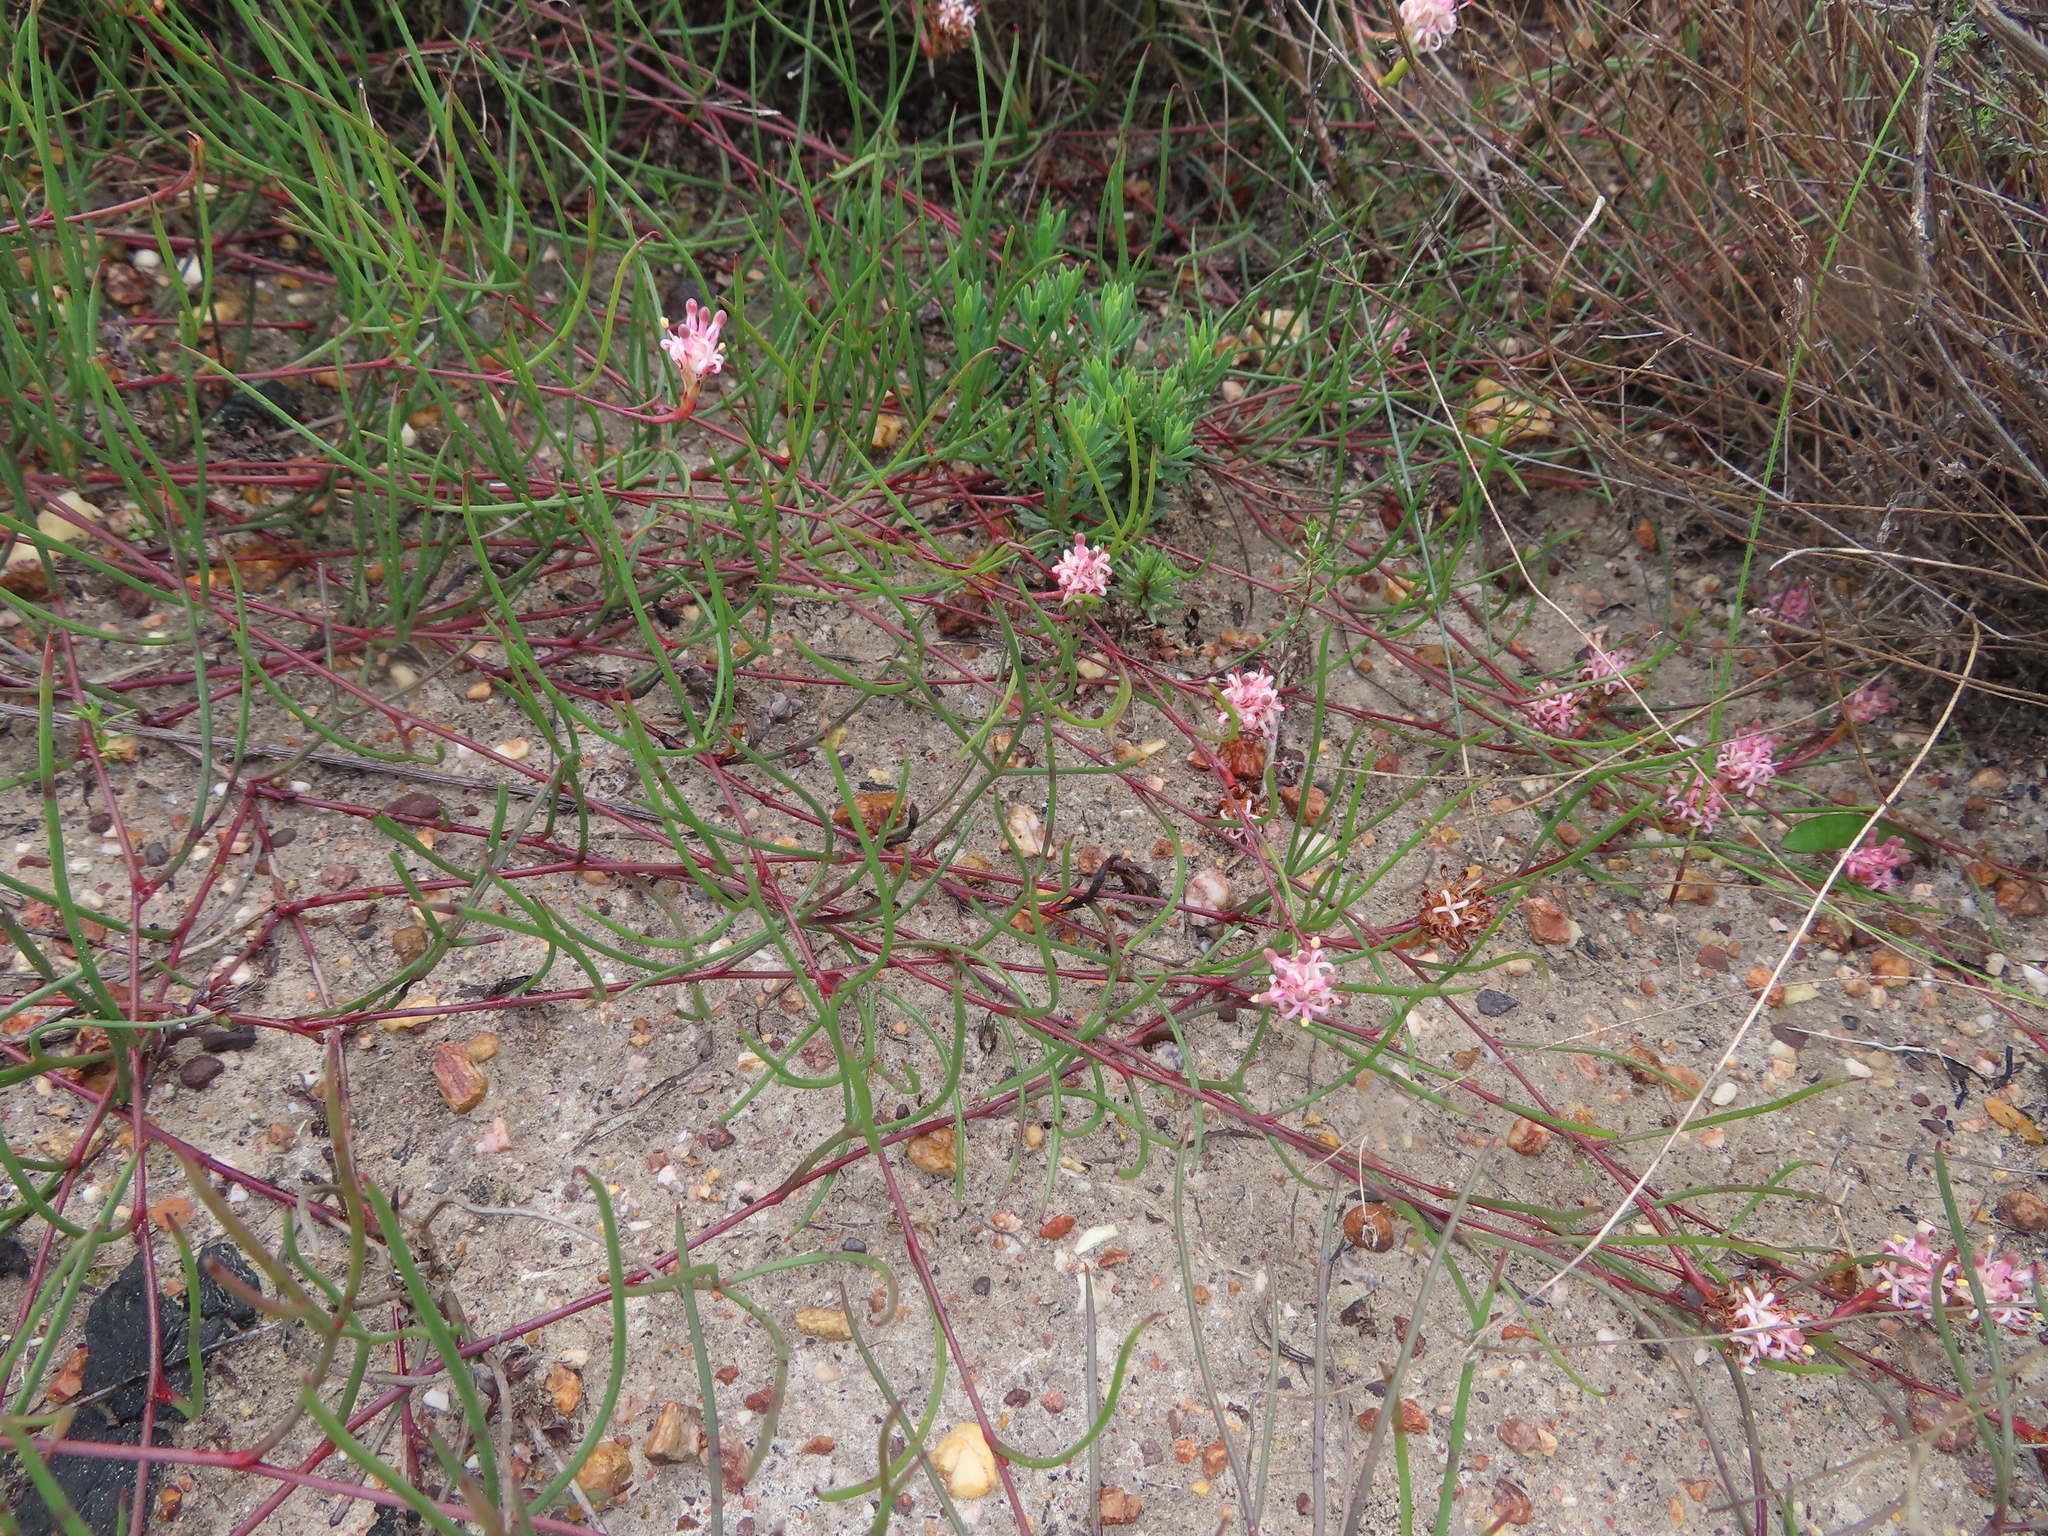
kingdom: Plantae
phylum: Tracheophyta
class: Magnoliopsida
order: Proteales
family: Proteaceae
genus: Serruria
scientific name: Serruria flagellifolia
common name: Houwhoek spiderhead
